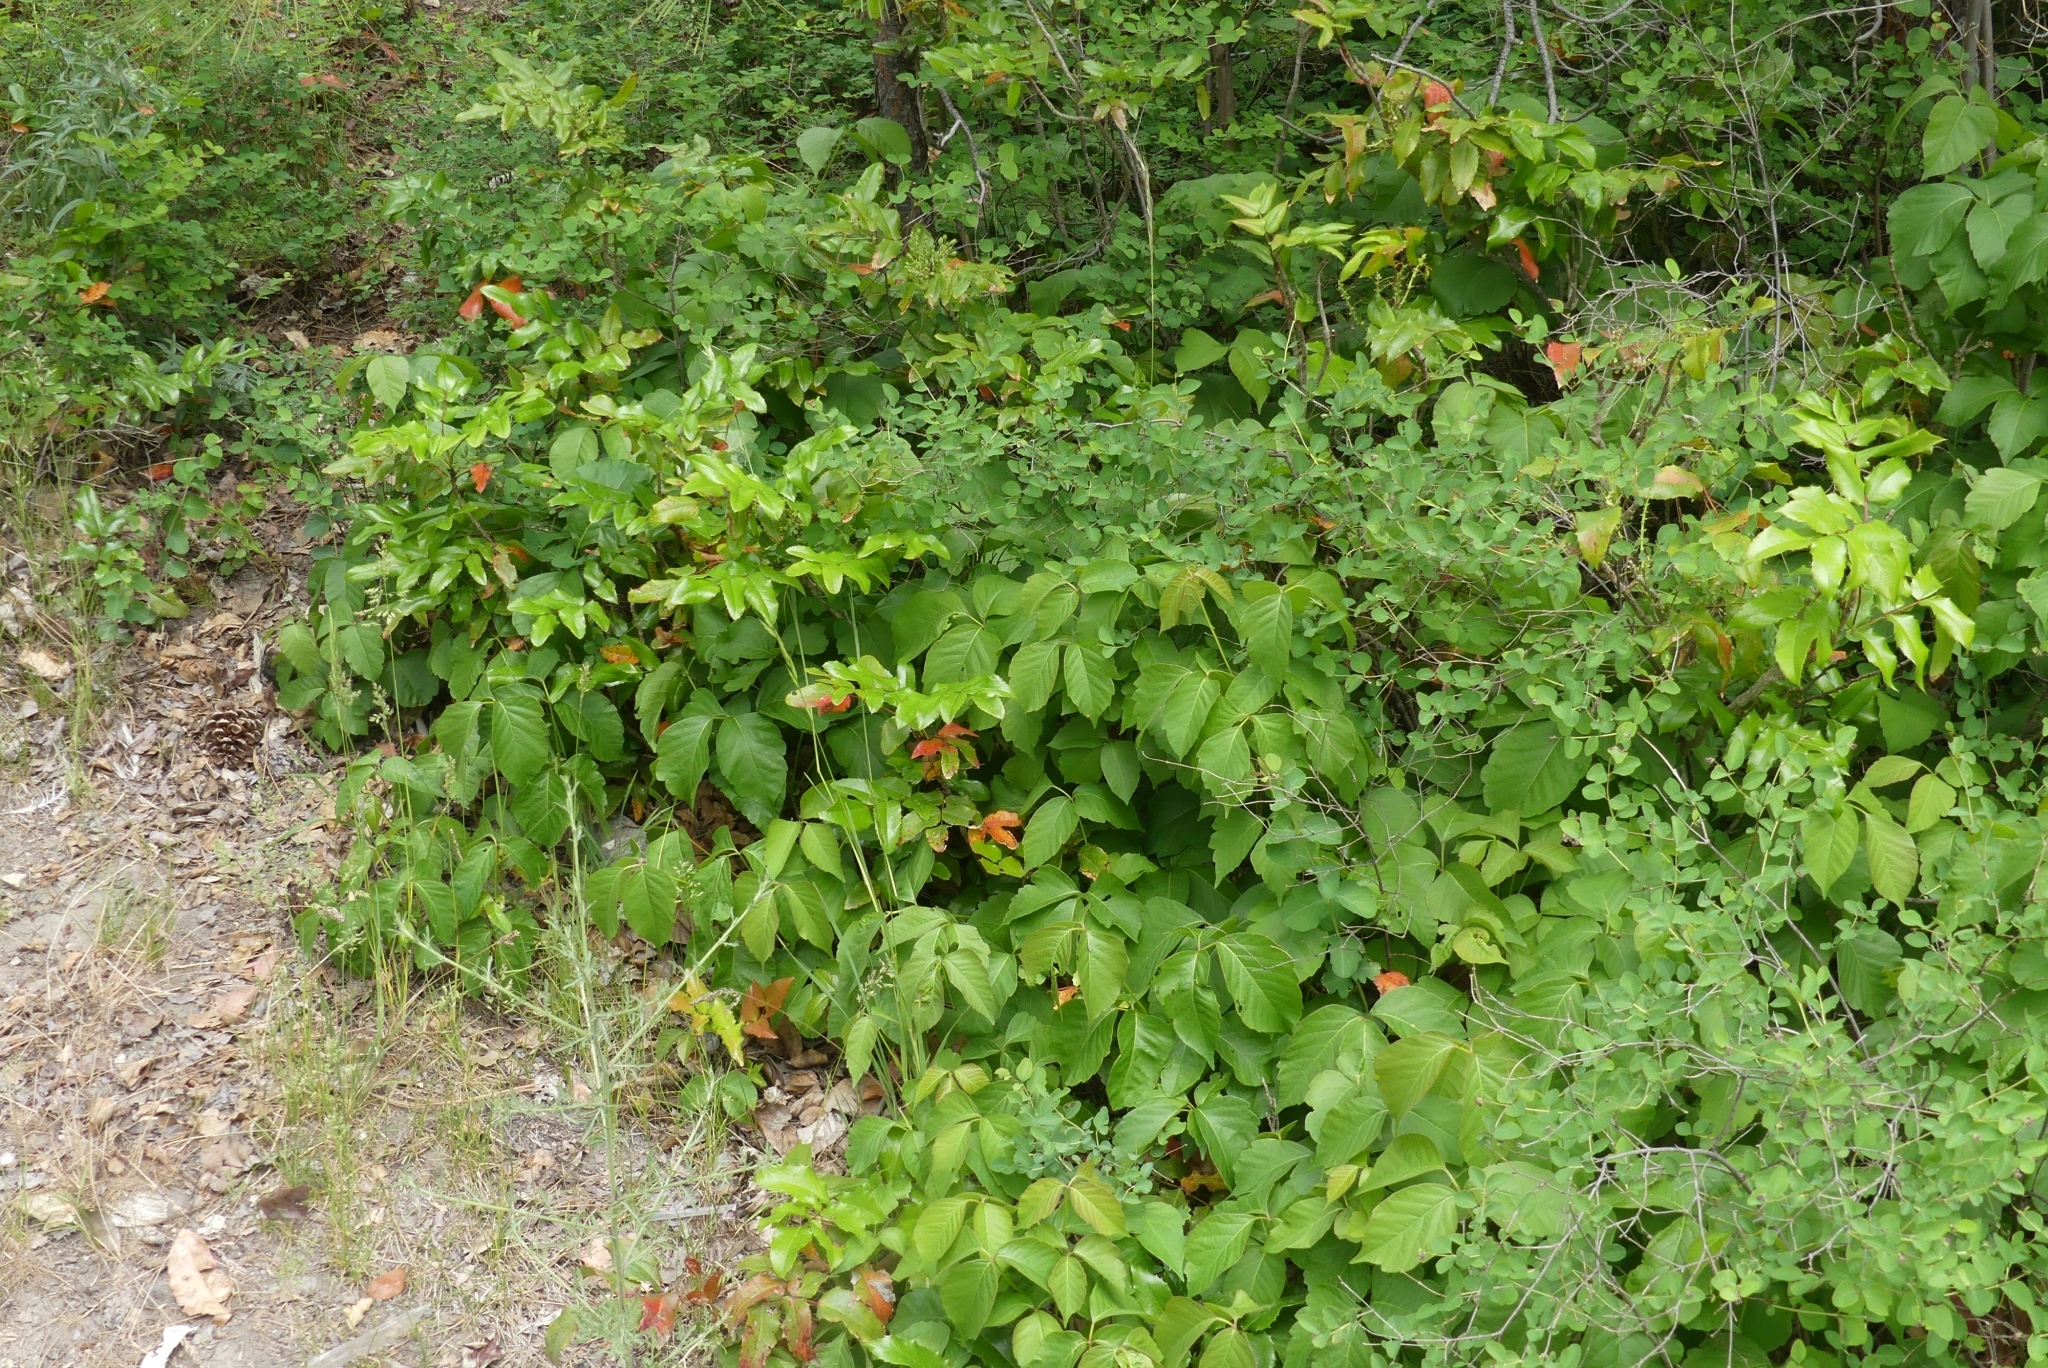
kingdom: Plantae
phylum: Tracheophyta
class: Magnoliopsida
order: Sapindales
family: Anacardiaceae
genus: Toxicodendron
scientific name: Toxicodendron rydbergii
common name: Rydberg's poison-ivy
